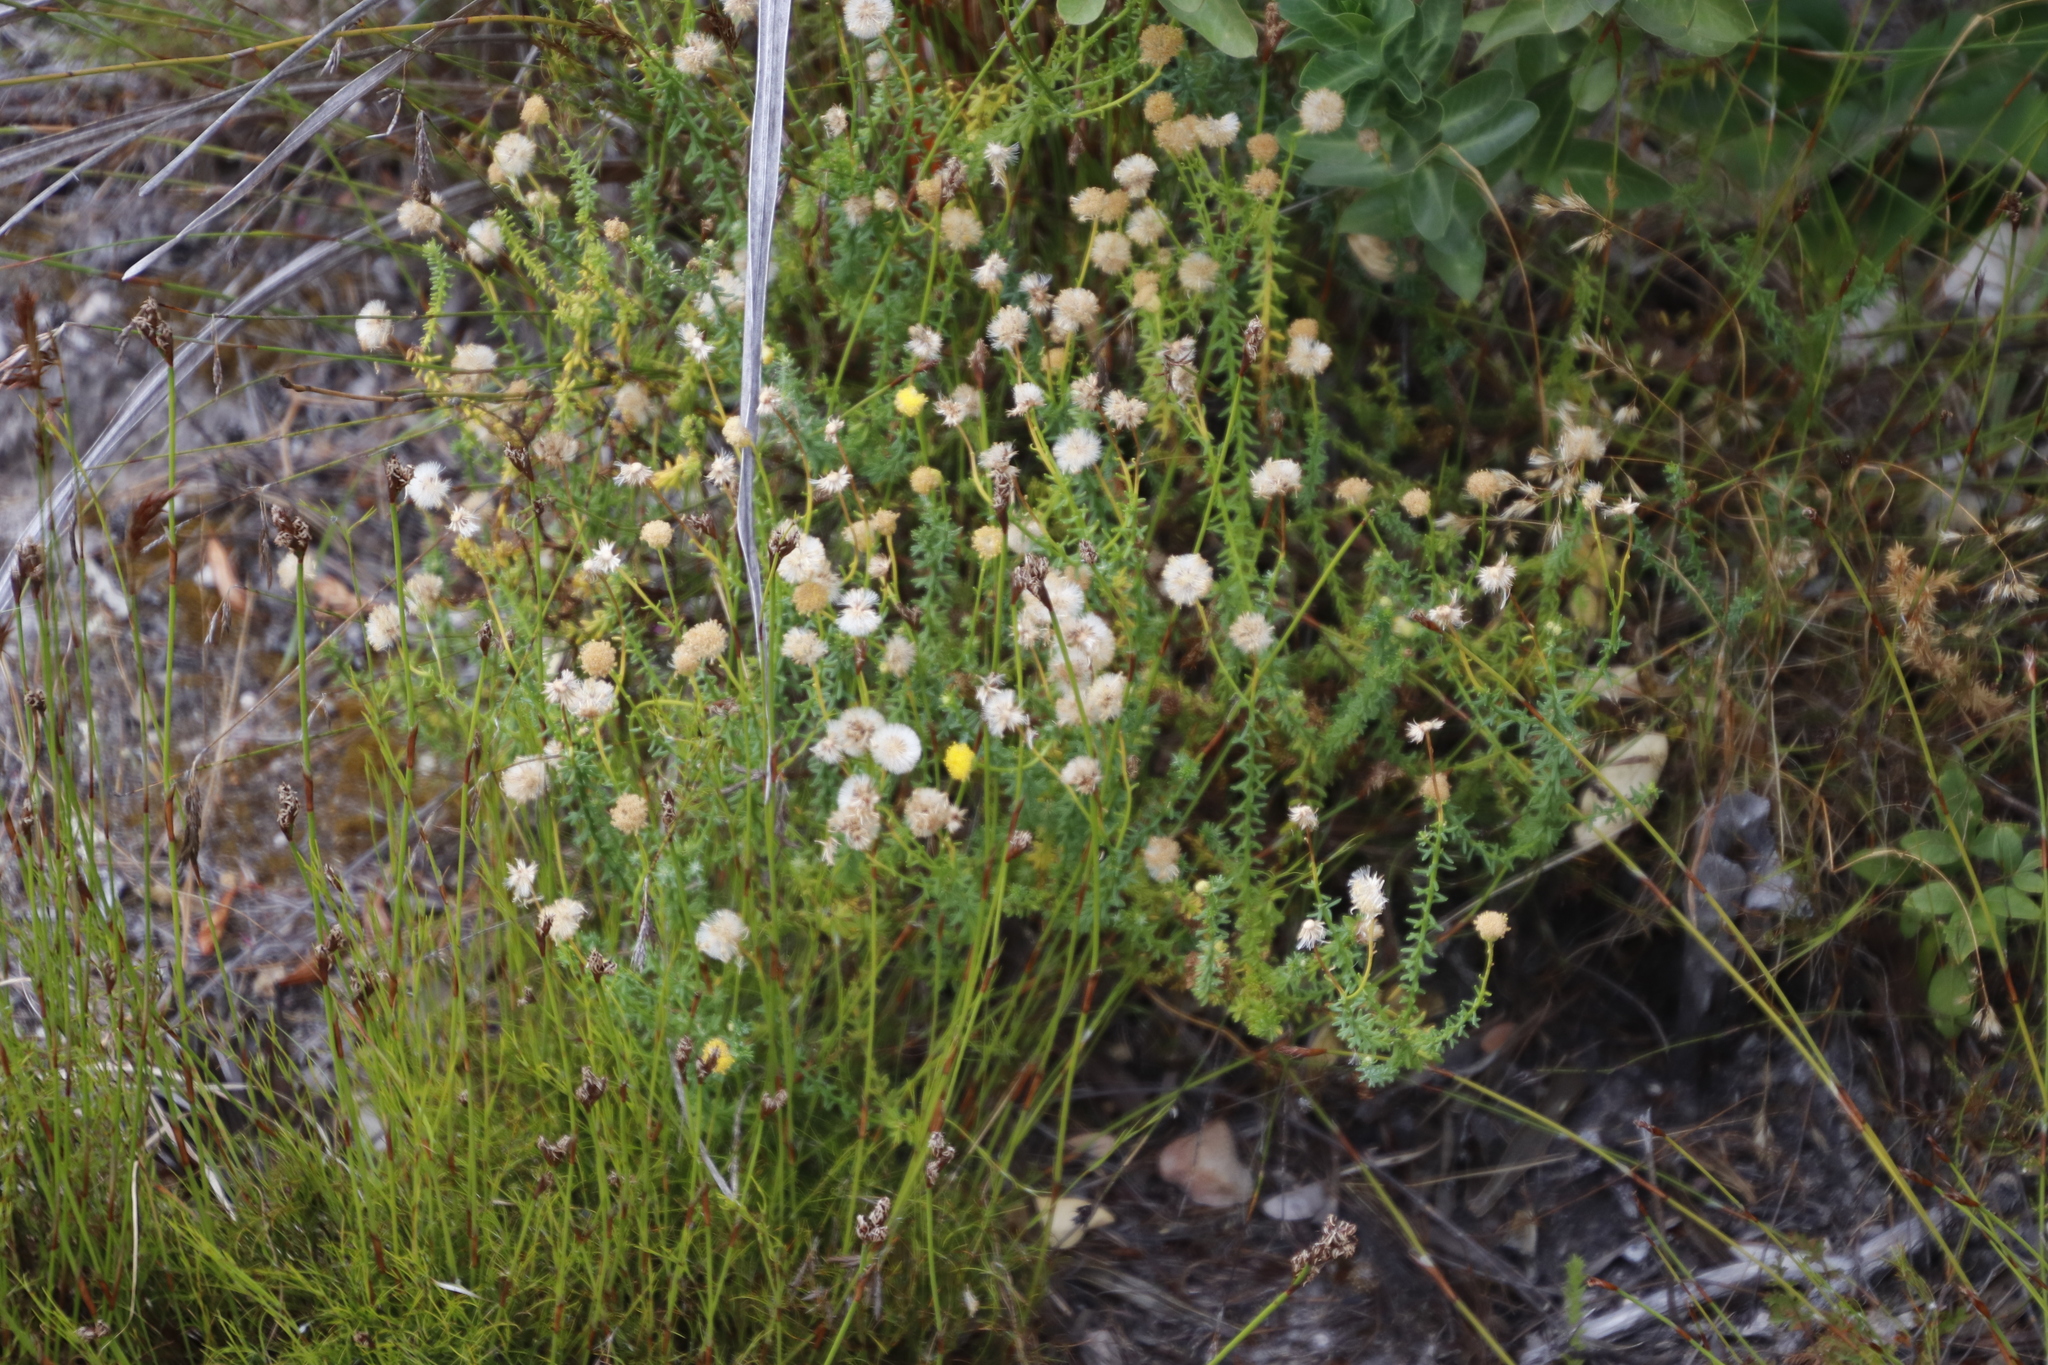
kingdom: Plantae
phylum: Tracheophyta
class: Magnoliopsida
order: Asterales
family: Asteraceae
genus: Chrysocoma
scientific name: Chrysocoma cernua
